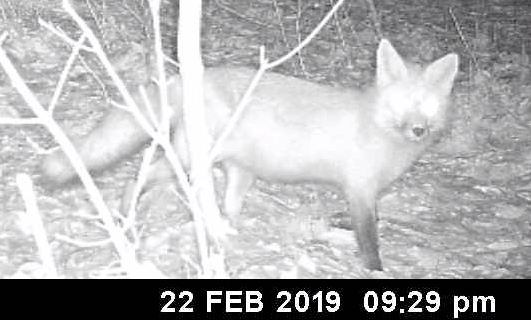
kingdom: Animalia
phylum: Chordata
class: Mammalia
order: Carnivora
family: Canidae
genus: Vulpes
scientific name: Vulpes vulpes
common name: Red fox
